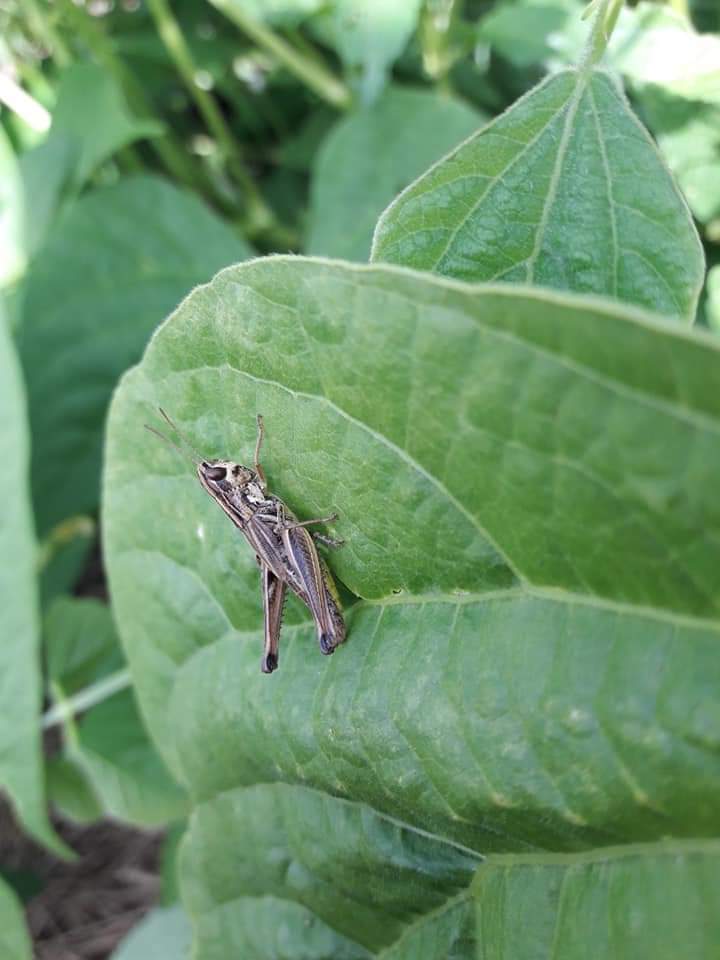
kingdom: Animalia
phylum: Arthropoda
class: Insecta
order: Orthoptera
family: Acrididae
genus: Pseudochorthippus
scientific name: Pseudochorthippus parallelus
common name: Meadow grasshopper
